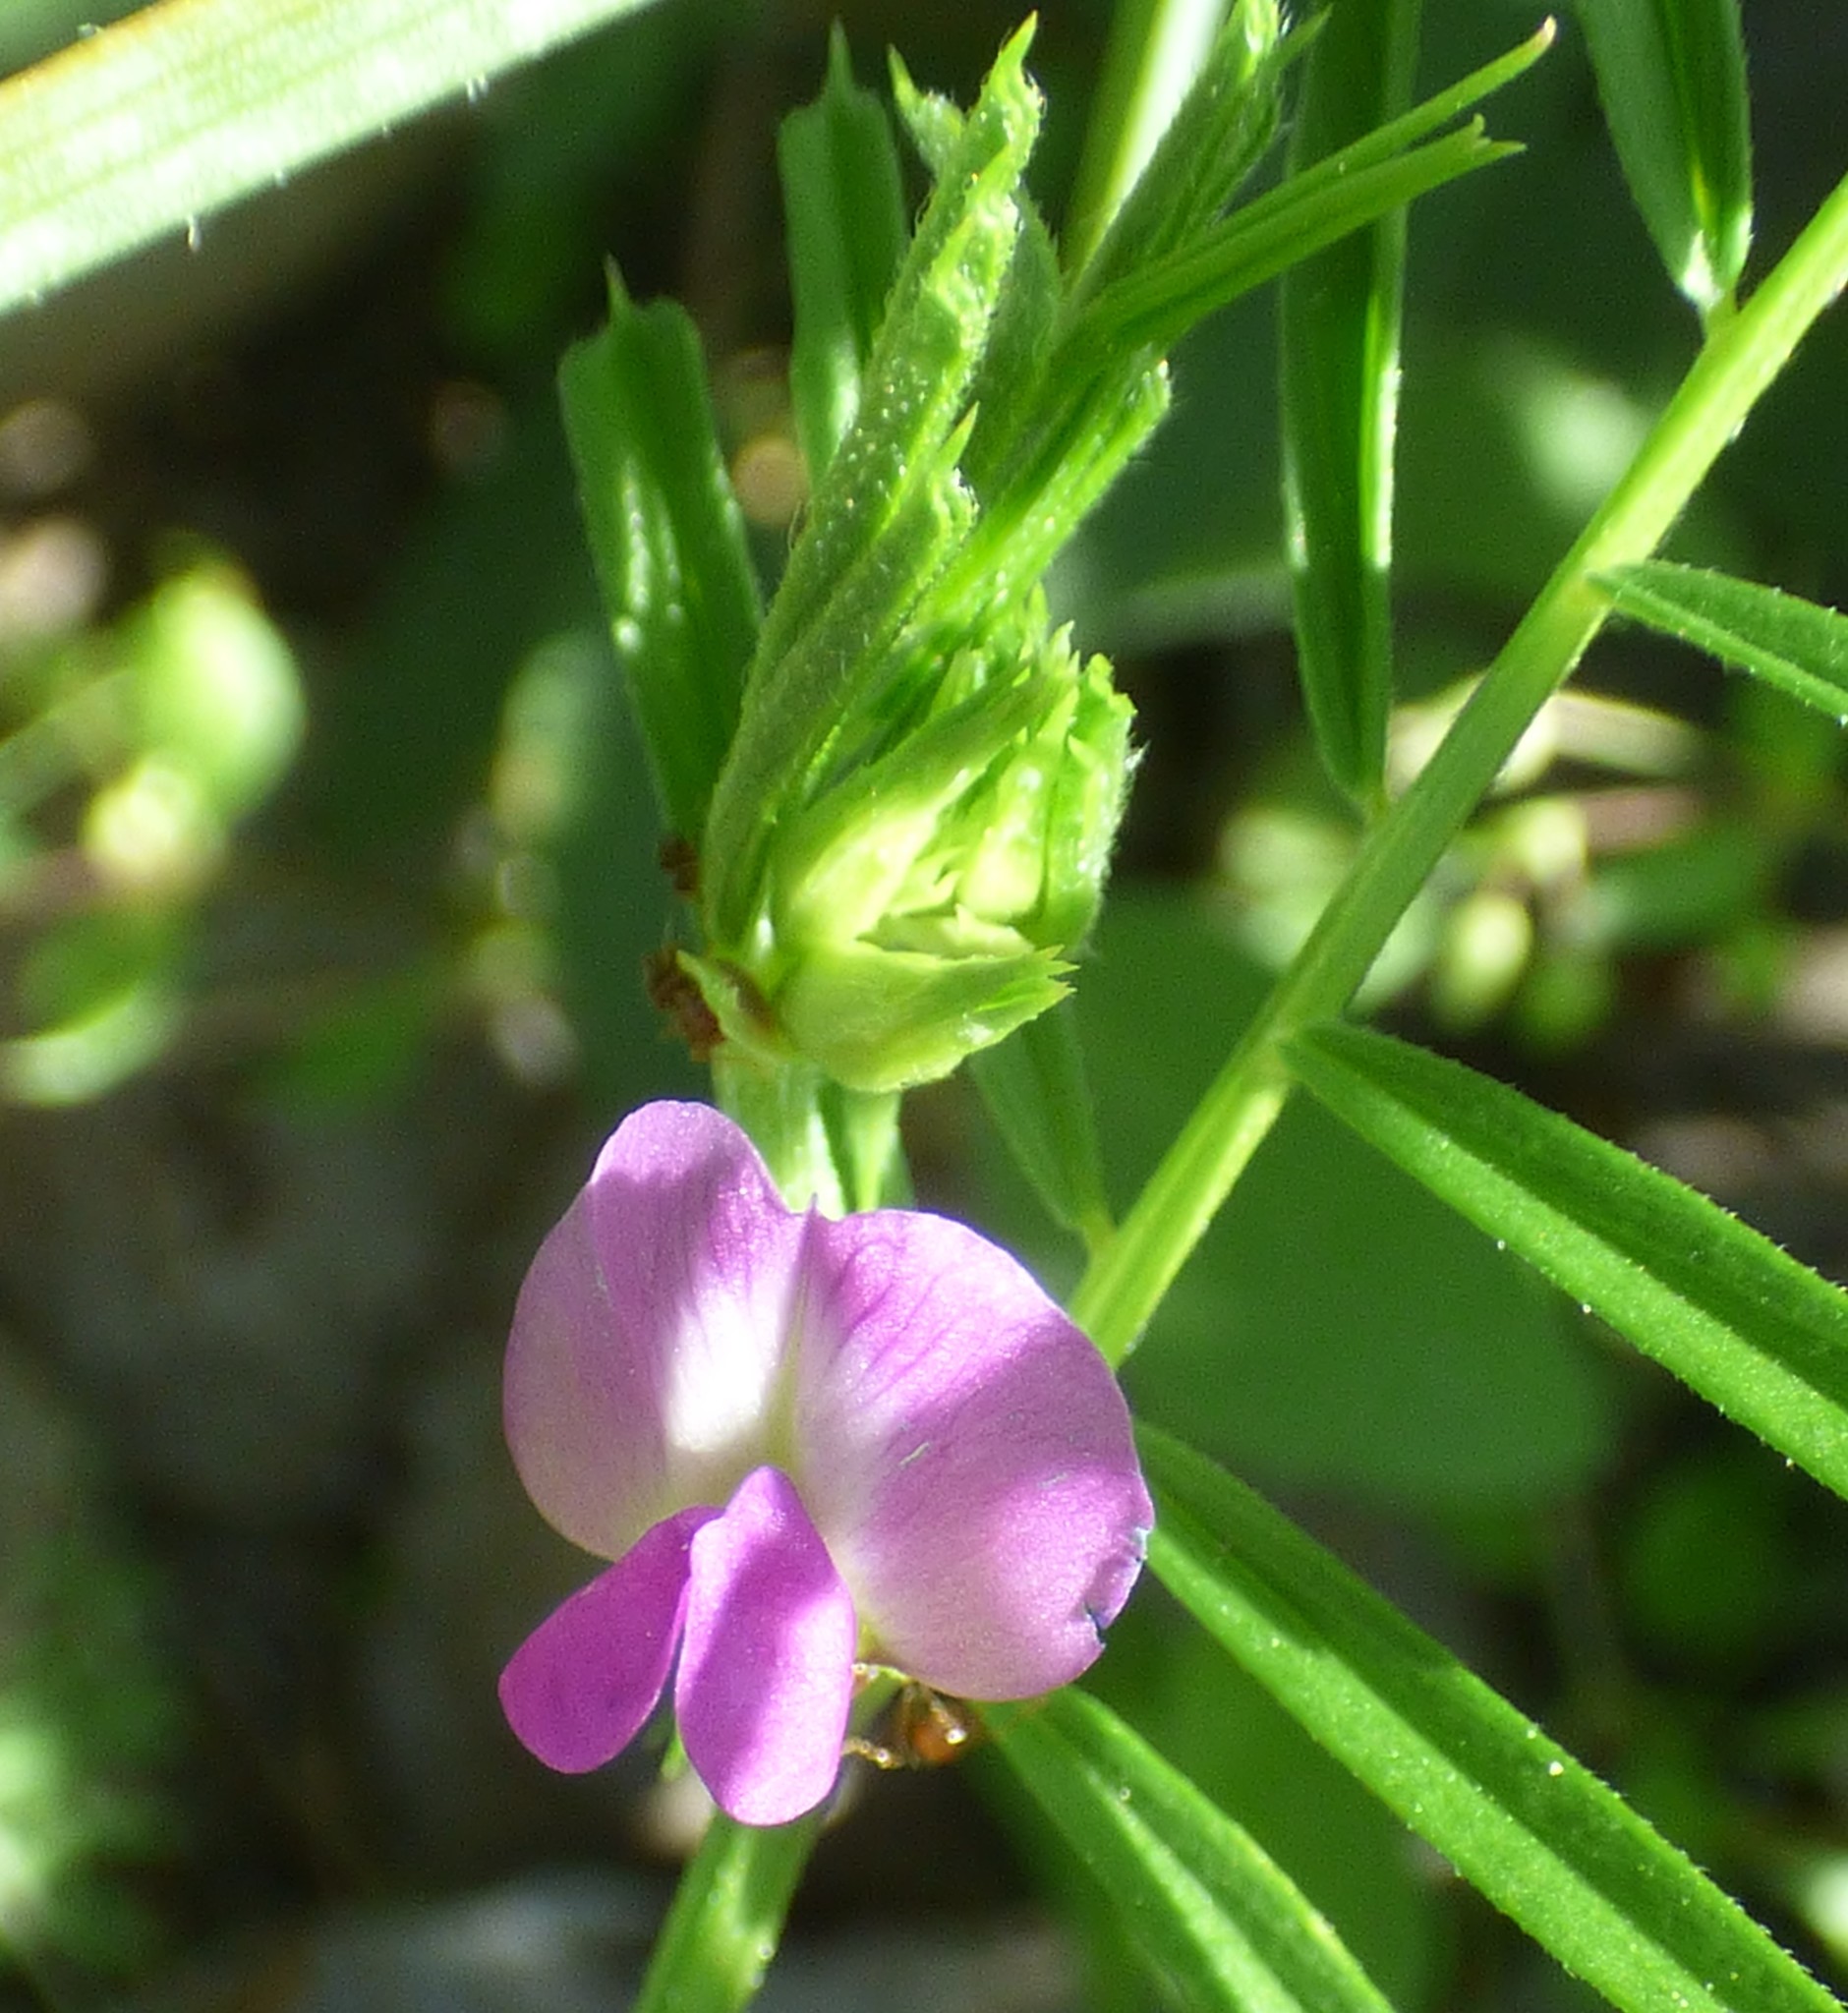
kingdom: Plantae
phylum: Tracheophyta
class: Magnoliopsida
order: Fabales
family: Fabaceae
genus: Vicia
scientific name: Vicia sativa
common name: Garden vetch
